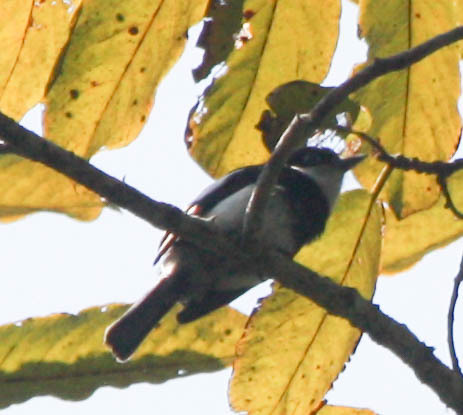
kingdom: Animalia
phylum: Chordata
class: Aves
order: Passeriformes
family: Vangidae
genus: Pseudobias
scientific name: Pseudobias wardi
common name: Ward's flycatcher
